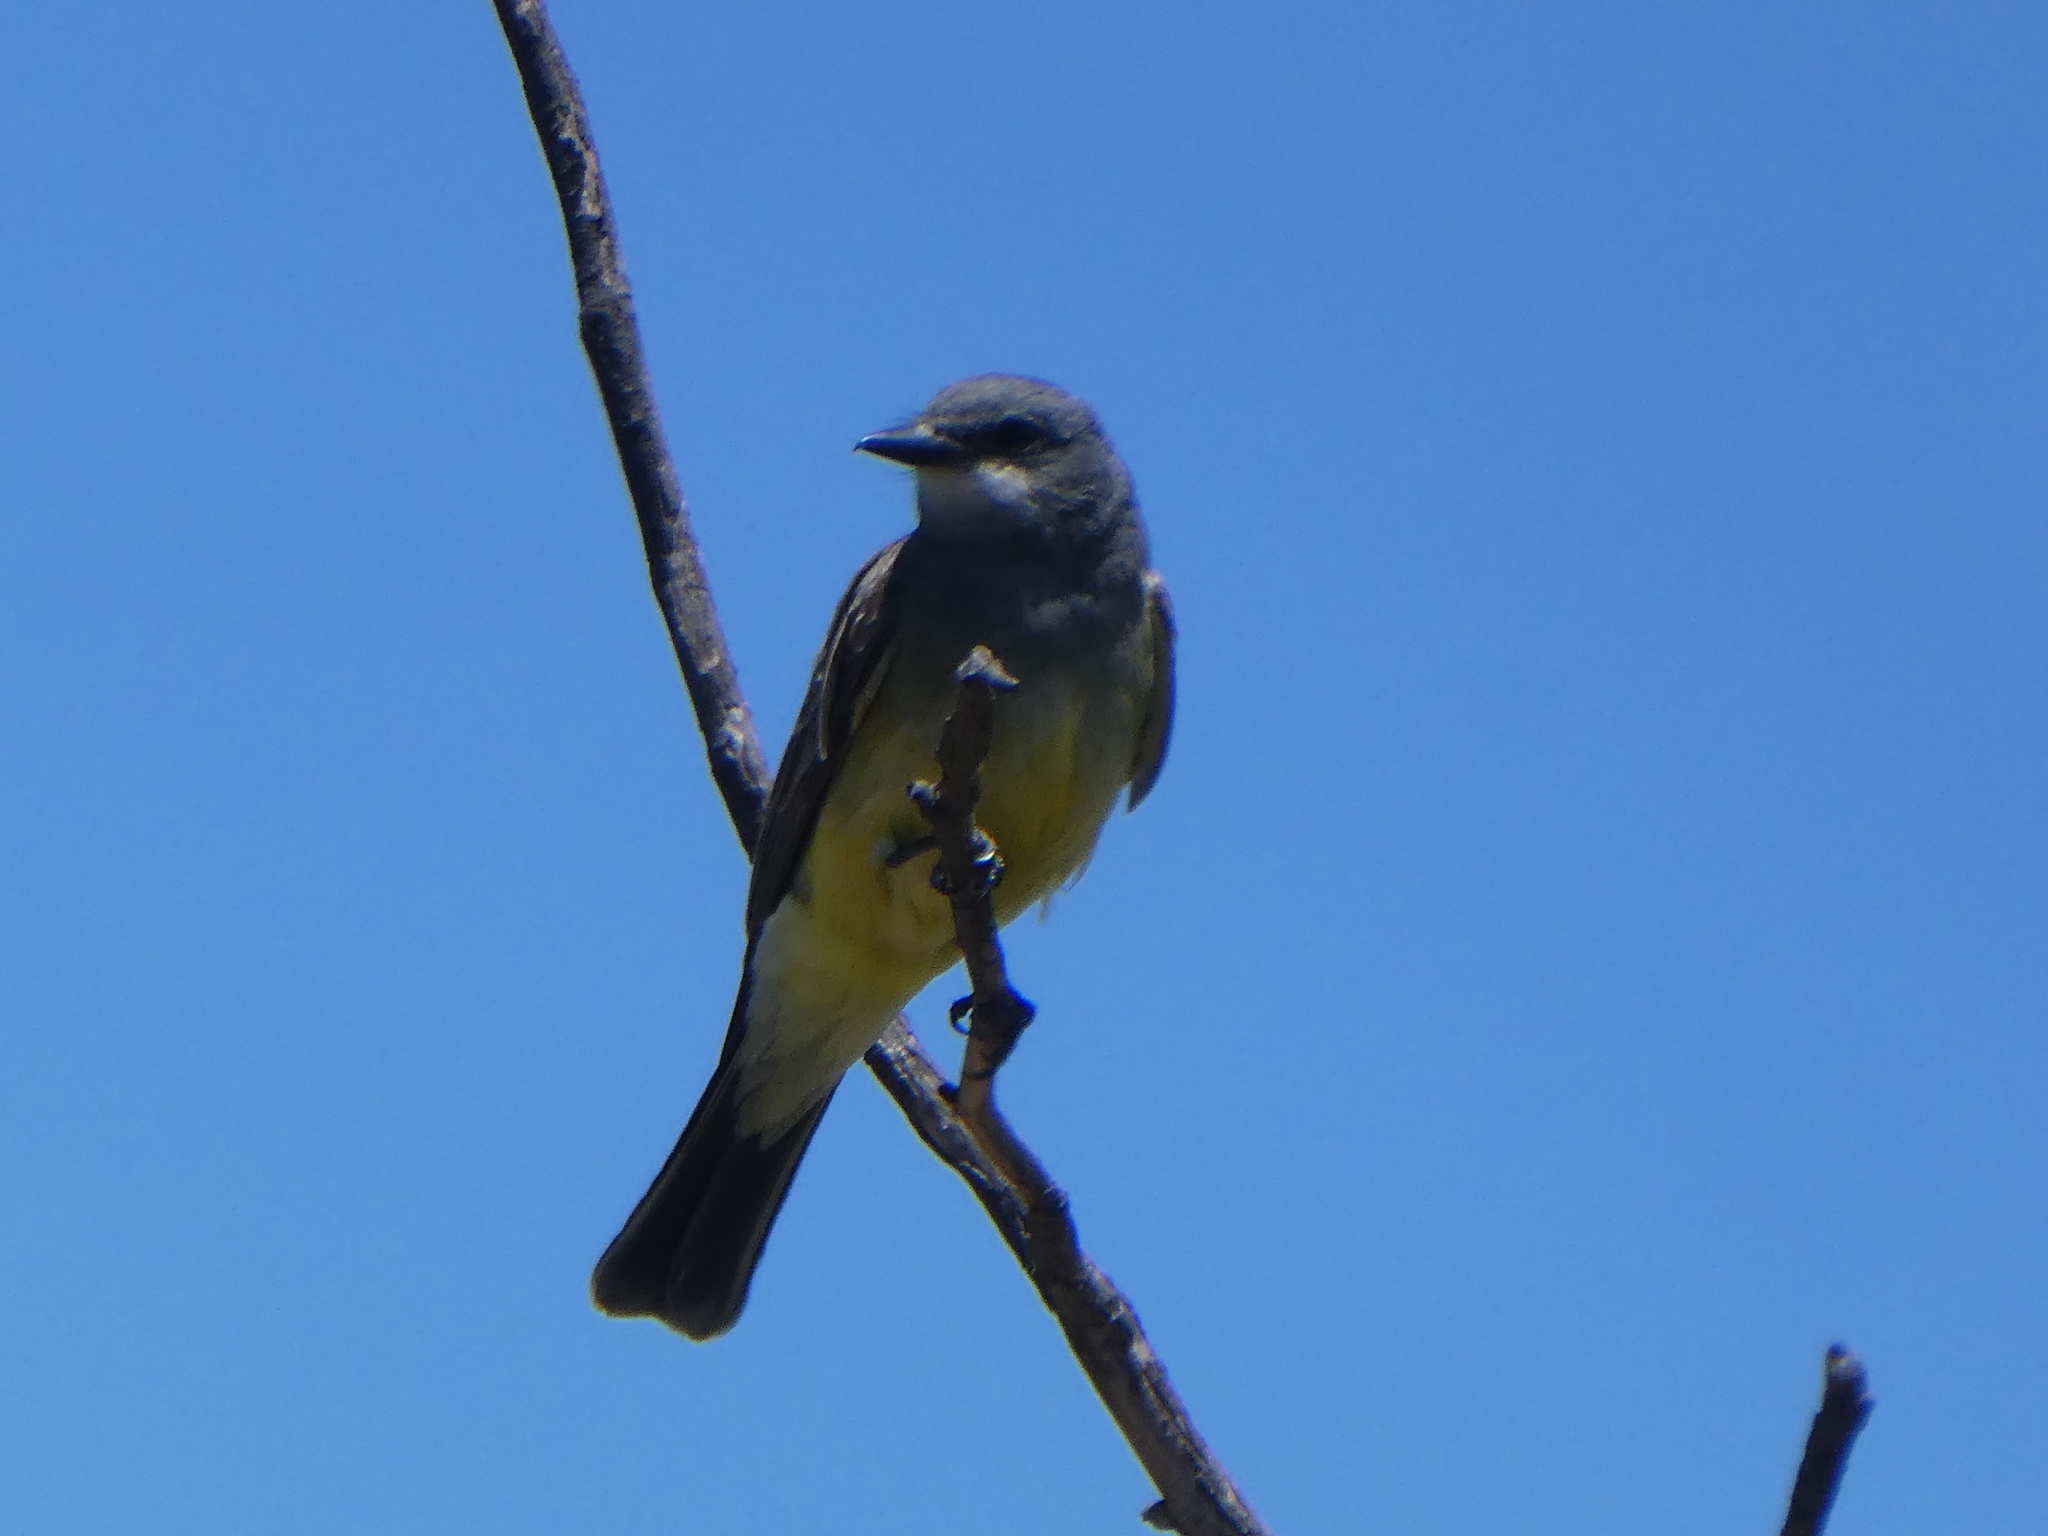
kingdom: Animalia
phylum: Chordata
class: Aves
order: Passeriformes
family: Tyrannidae
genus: Tyrannus
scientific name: Tyrannus vociferans
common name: Cassin's kingbird
